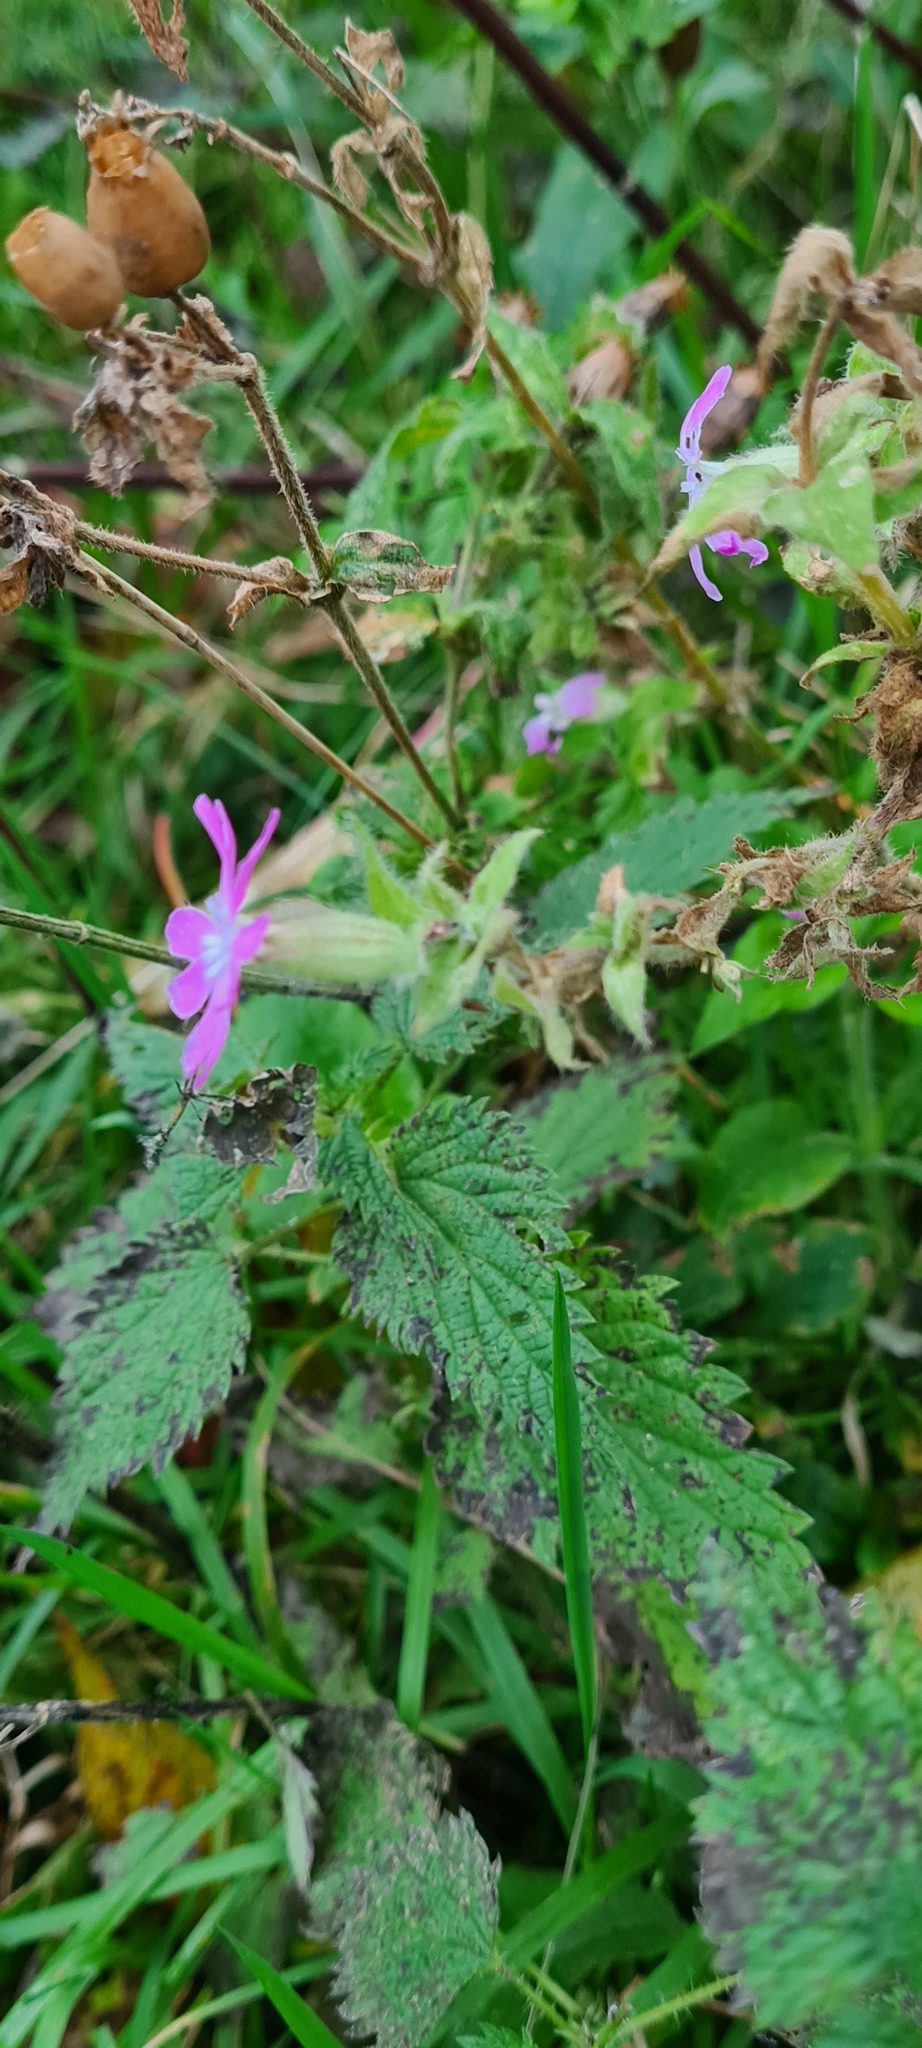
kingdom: Plantae
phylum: Tracheophyta
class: Magnoliopsida
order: Caryophyllales
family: Caryophyllaceae
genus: Silene
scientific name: Silene dioica
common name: Red campion
